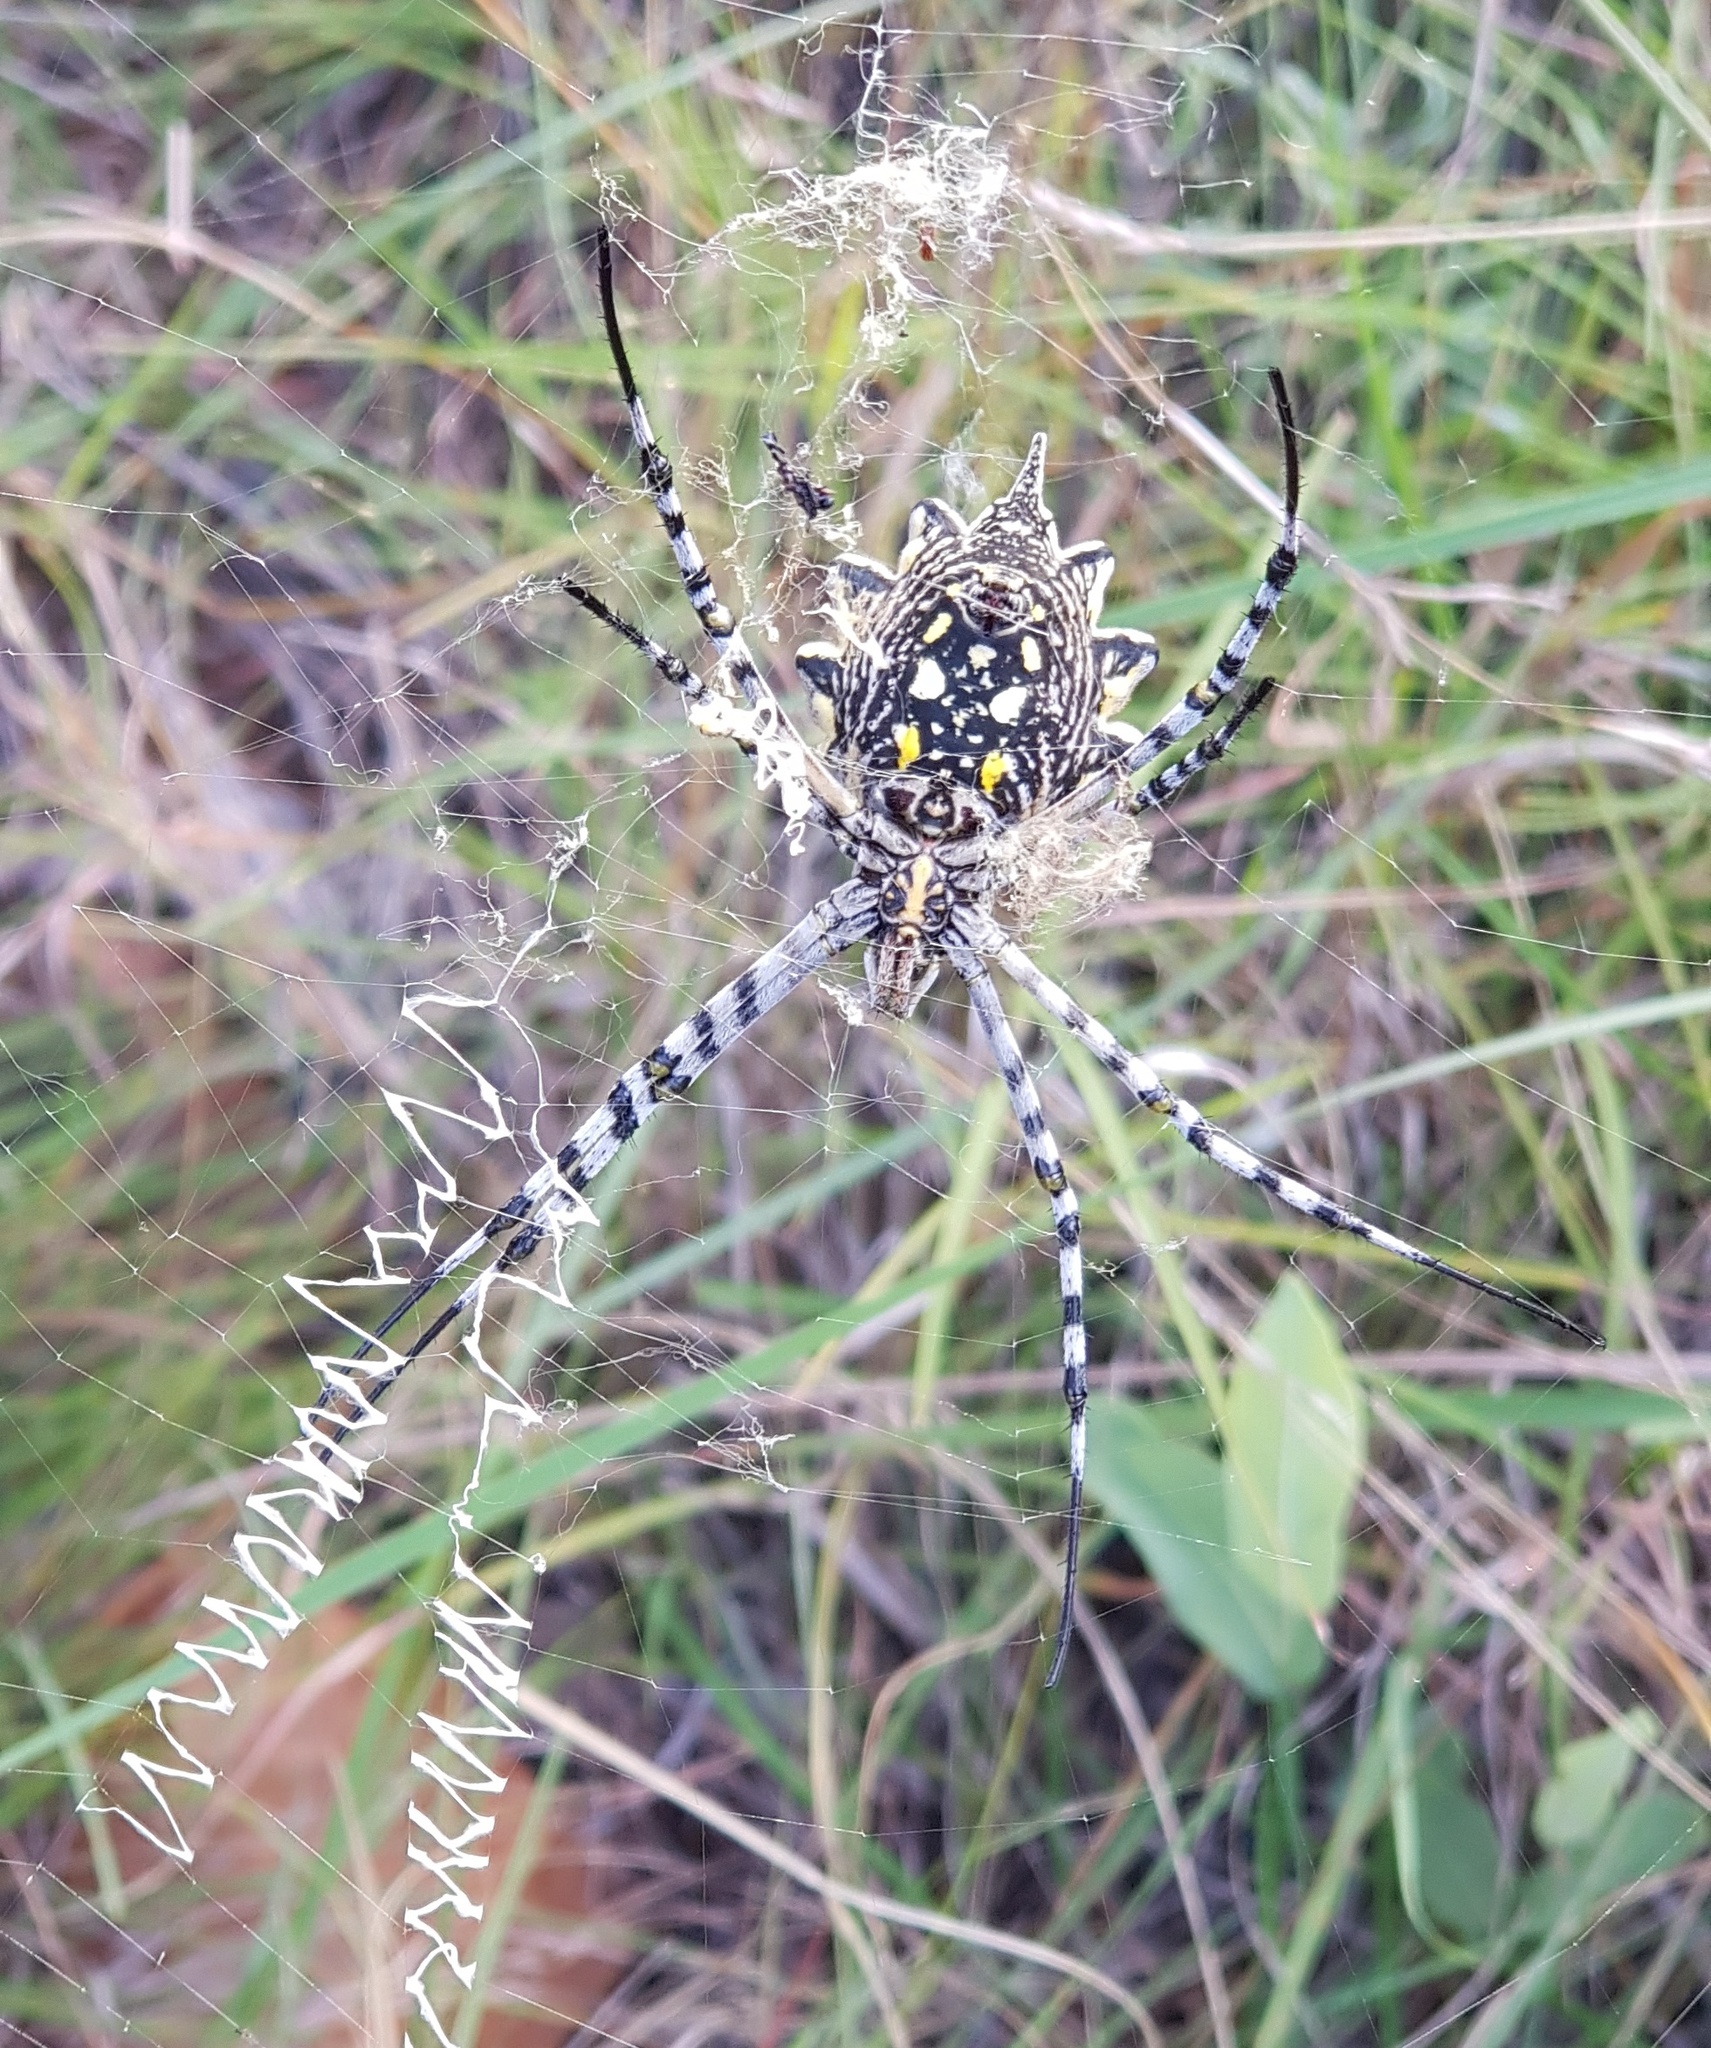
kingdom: Animalia
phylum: Arthropoda
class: Arachnida
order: Araneae
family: Araneidae
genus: Argiope
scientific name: Argiope australis
